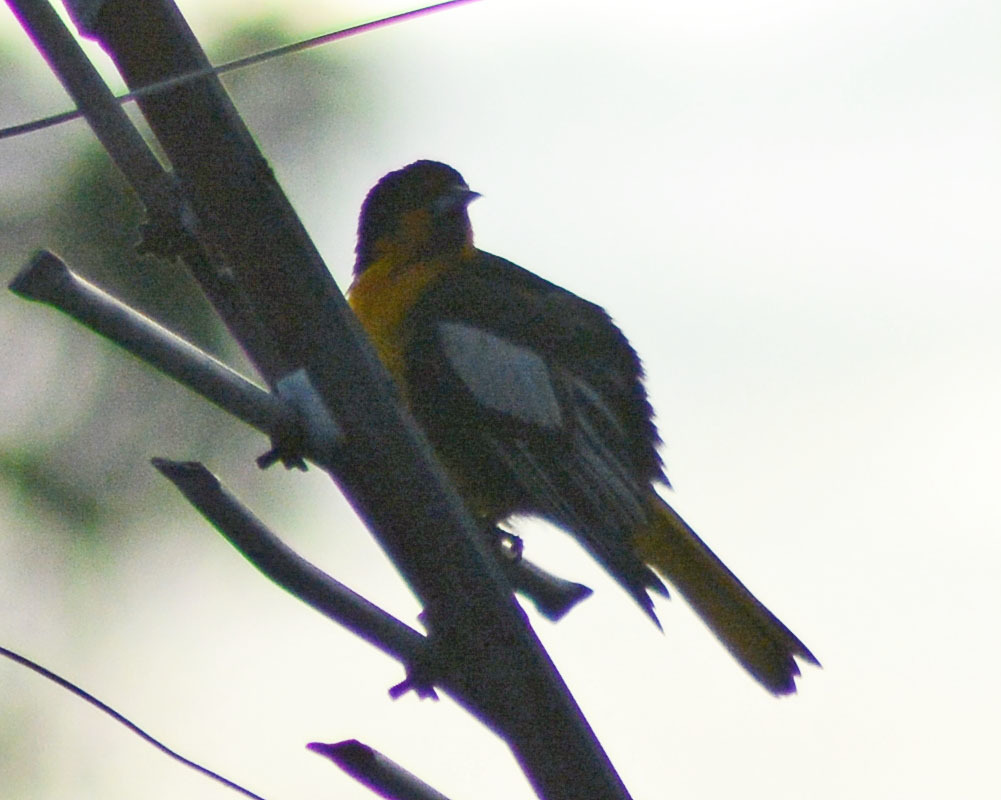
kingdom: Animalia
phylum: Chordata
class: Aves
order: Passeriformes
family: Icteridae
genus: Icterus
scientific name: Icterus abeillei
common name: Black-backed oriole
